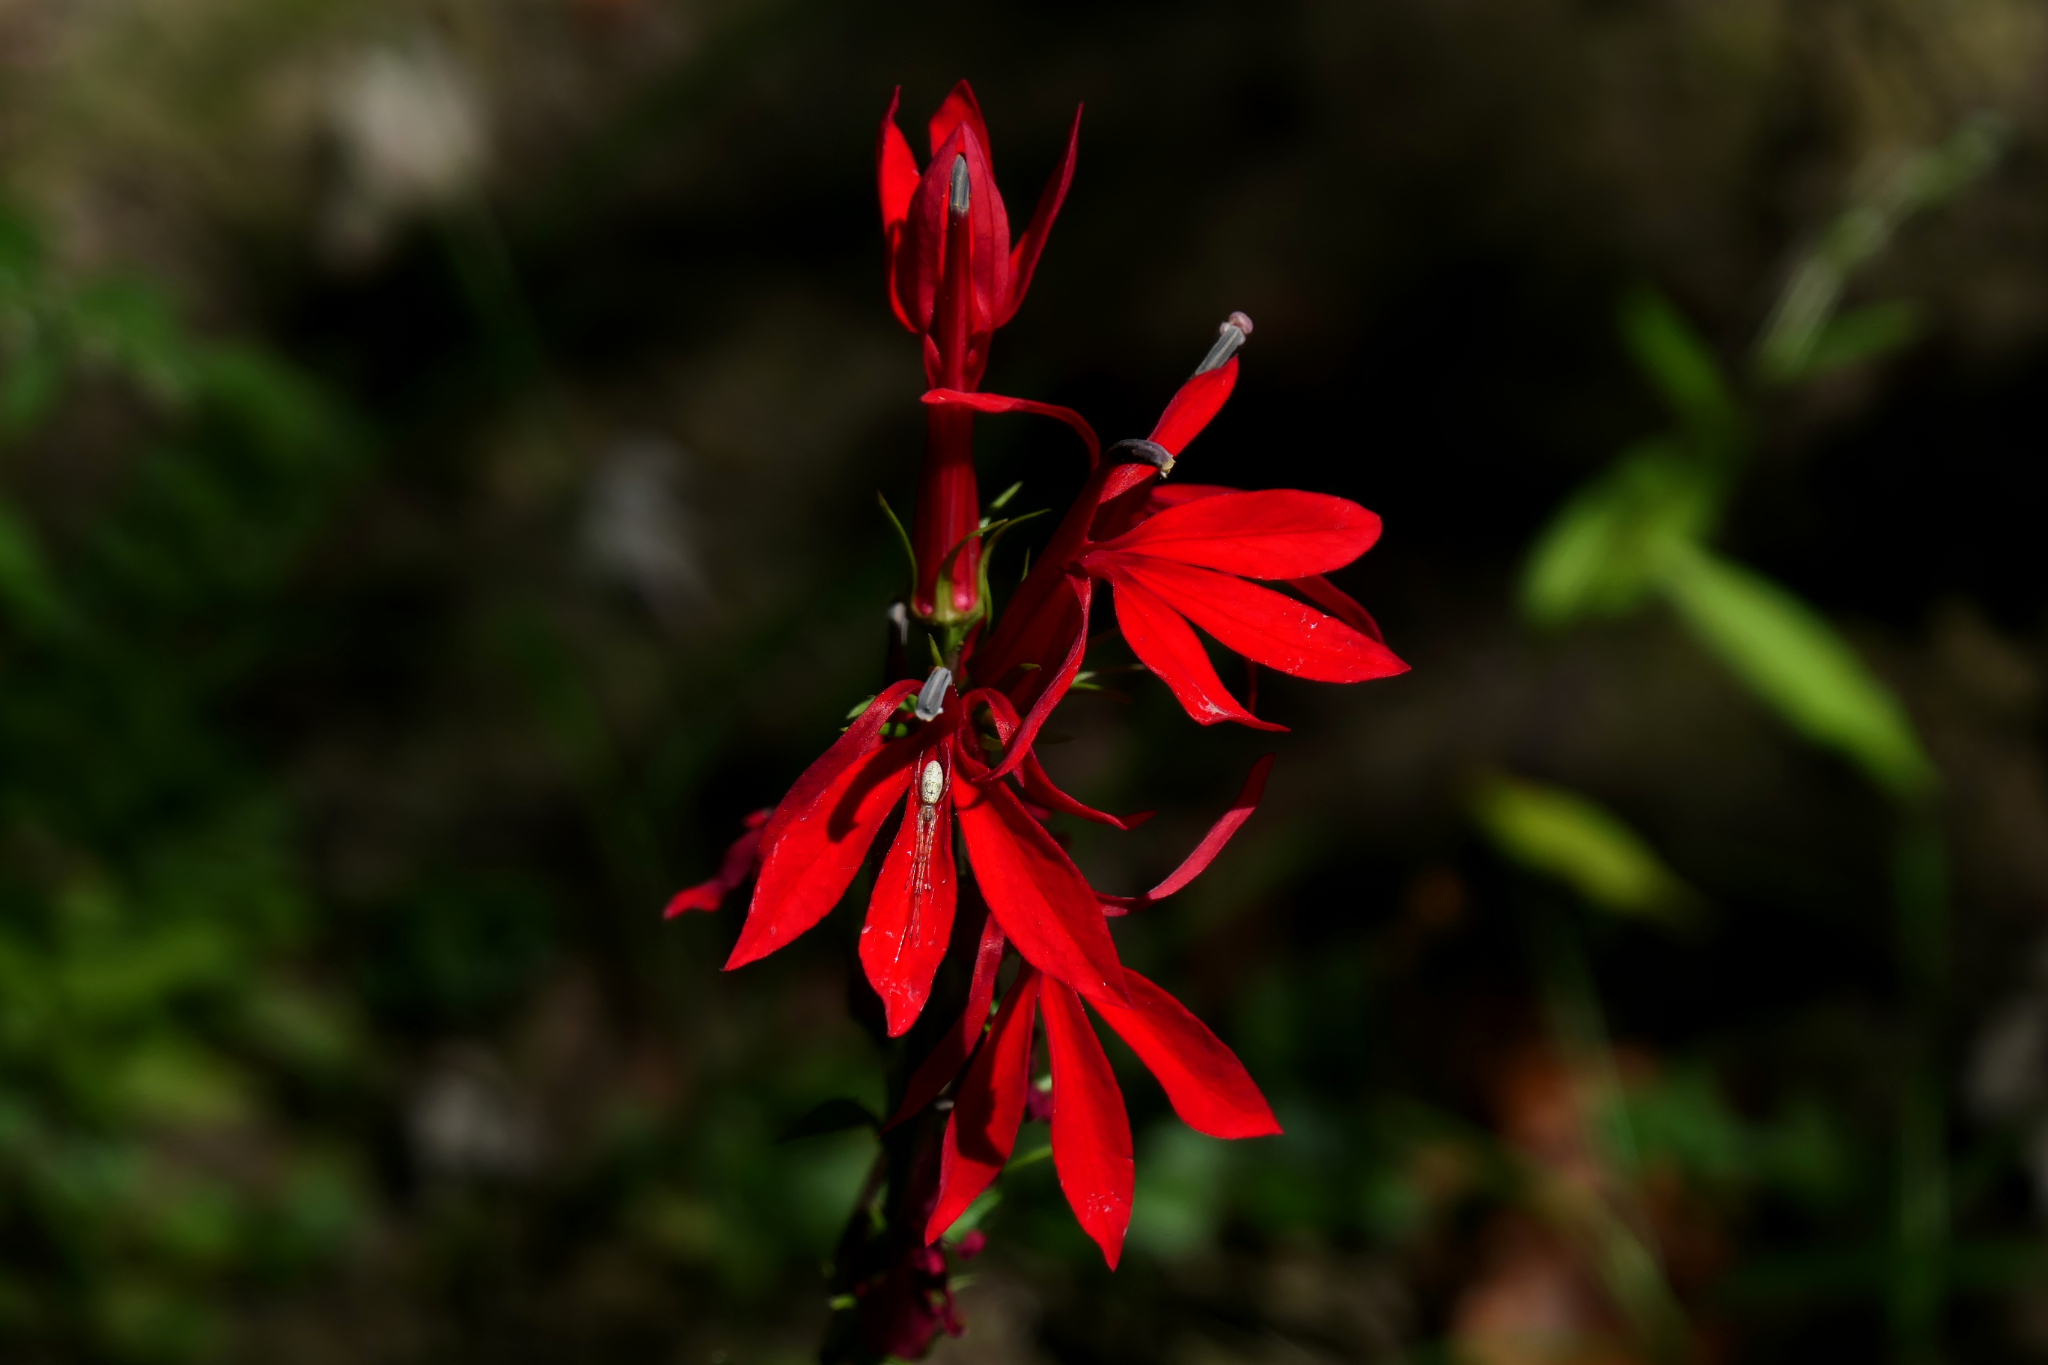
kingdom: Plantae
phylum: Tracheophyta
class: Magnoliopsida
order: Asterales
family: Campanulaceae
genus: Lobelia
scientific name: Lobelia cardinalis
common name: Cardinal flower
